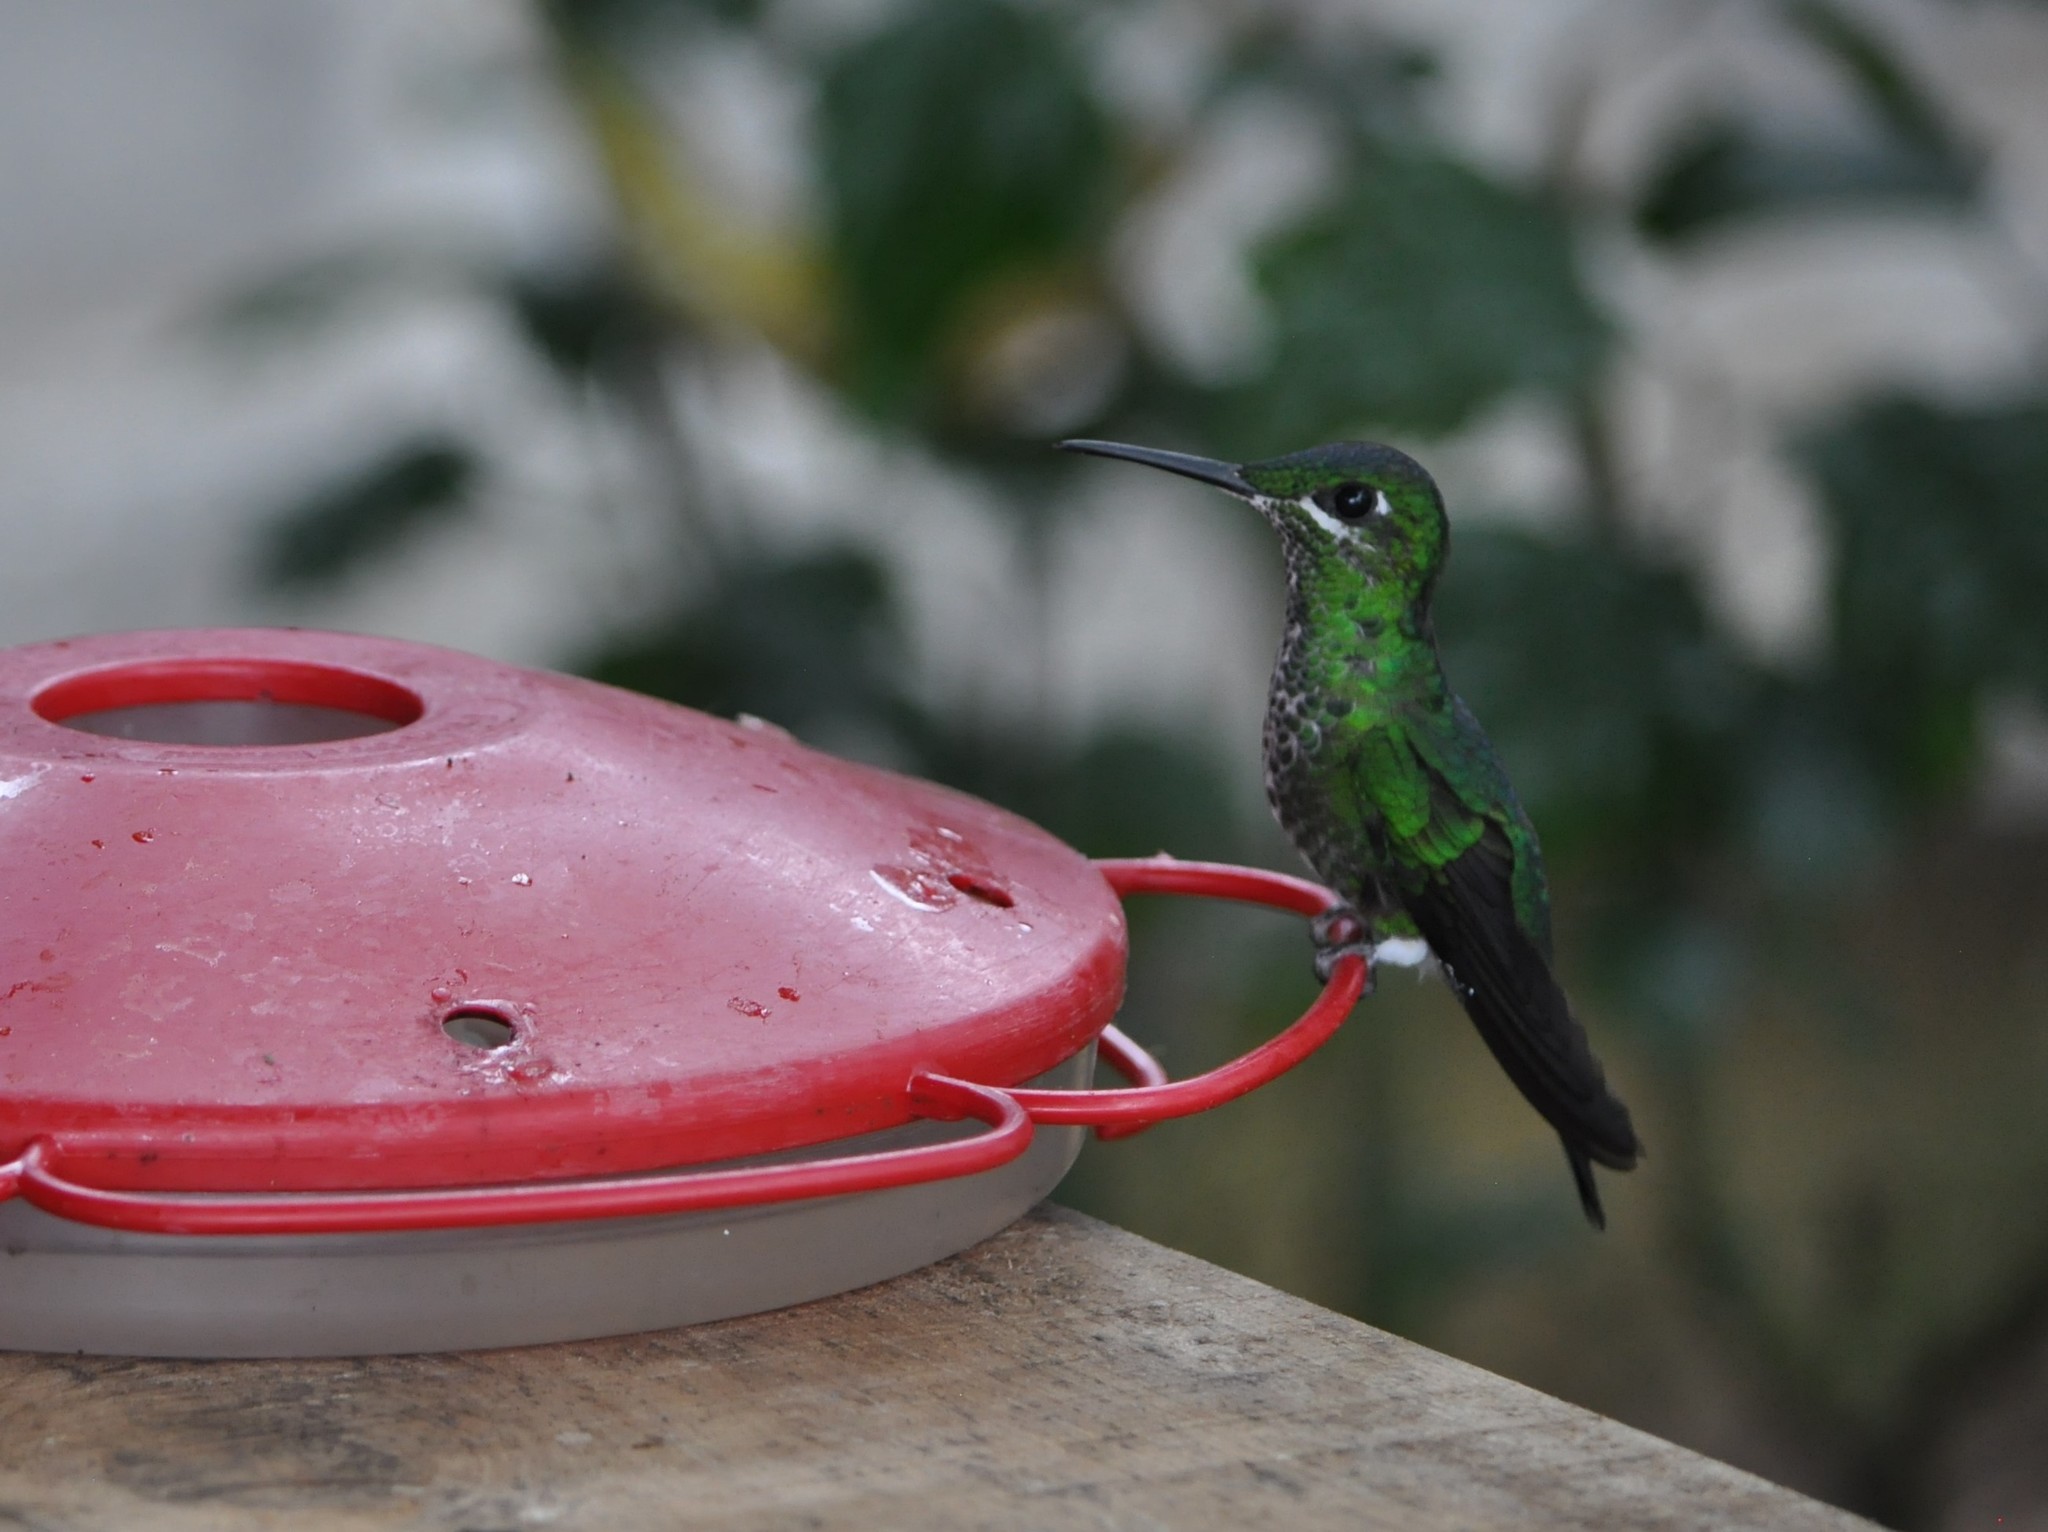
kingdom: Animalia
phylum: Chordata
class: Aves
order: Apodiformes
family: Trochilidae
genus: Heliodoxa
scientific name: Heliodoxa jacula
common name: Green-crowned brilliant
